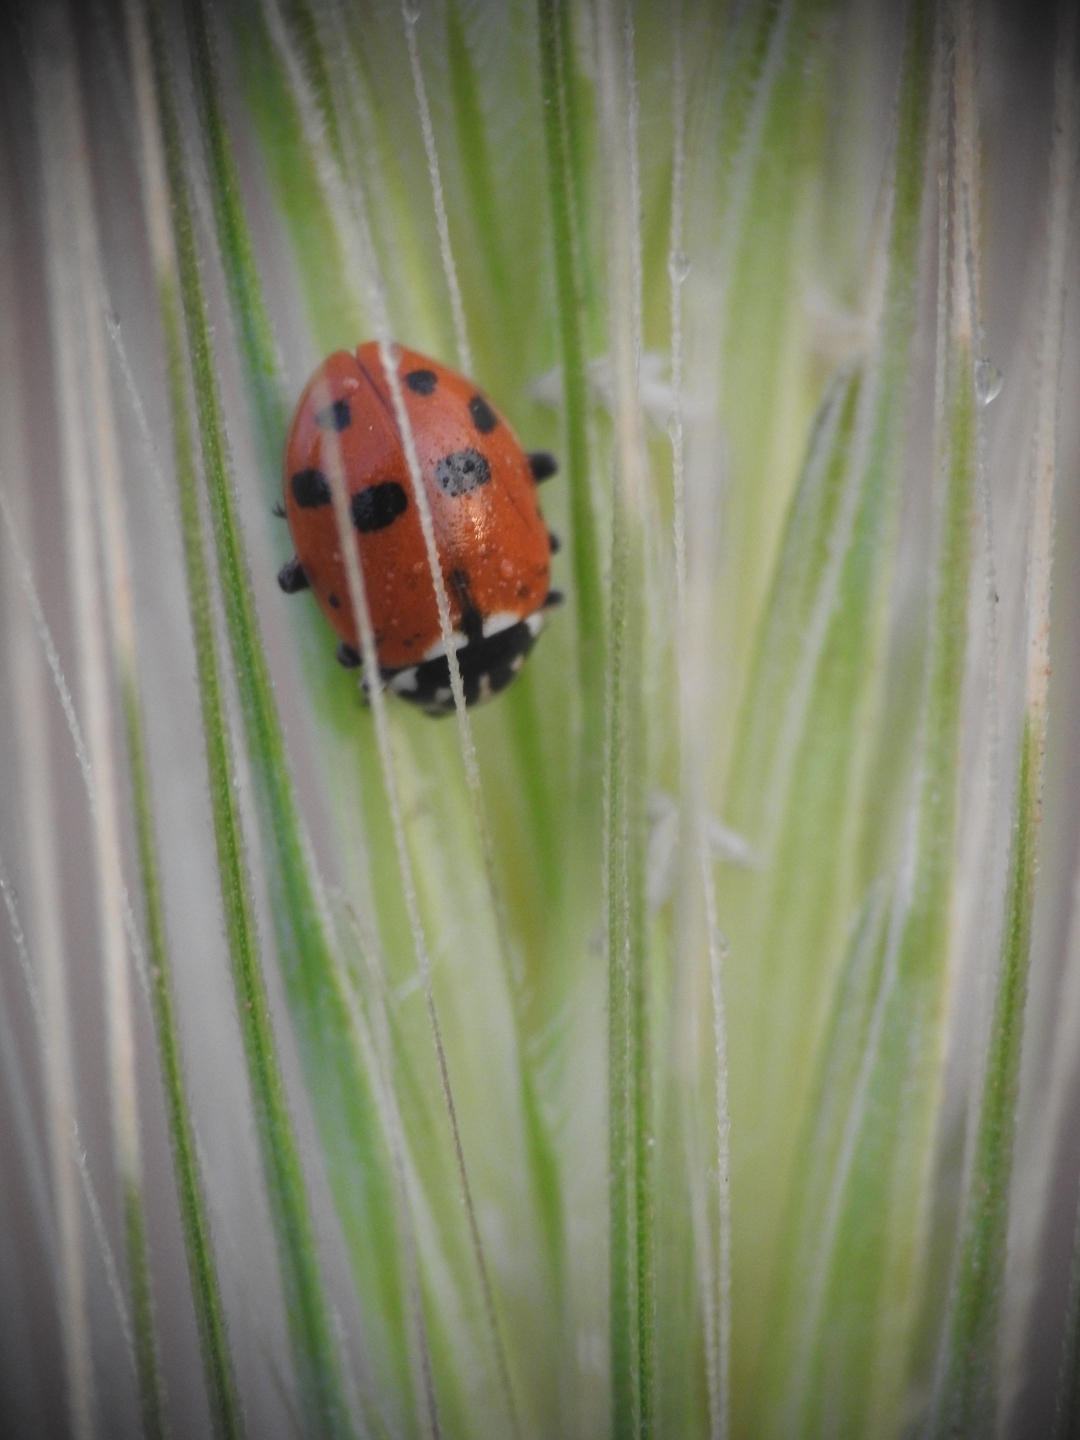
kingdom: Animalia
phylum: Arthropoda
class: Insecta
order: Coleoptera
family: Coccinellidae
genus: Hippodamia
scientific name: Hippodamia variegata
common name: Ladybird beetle
